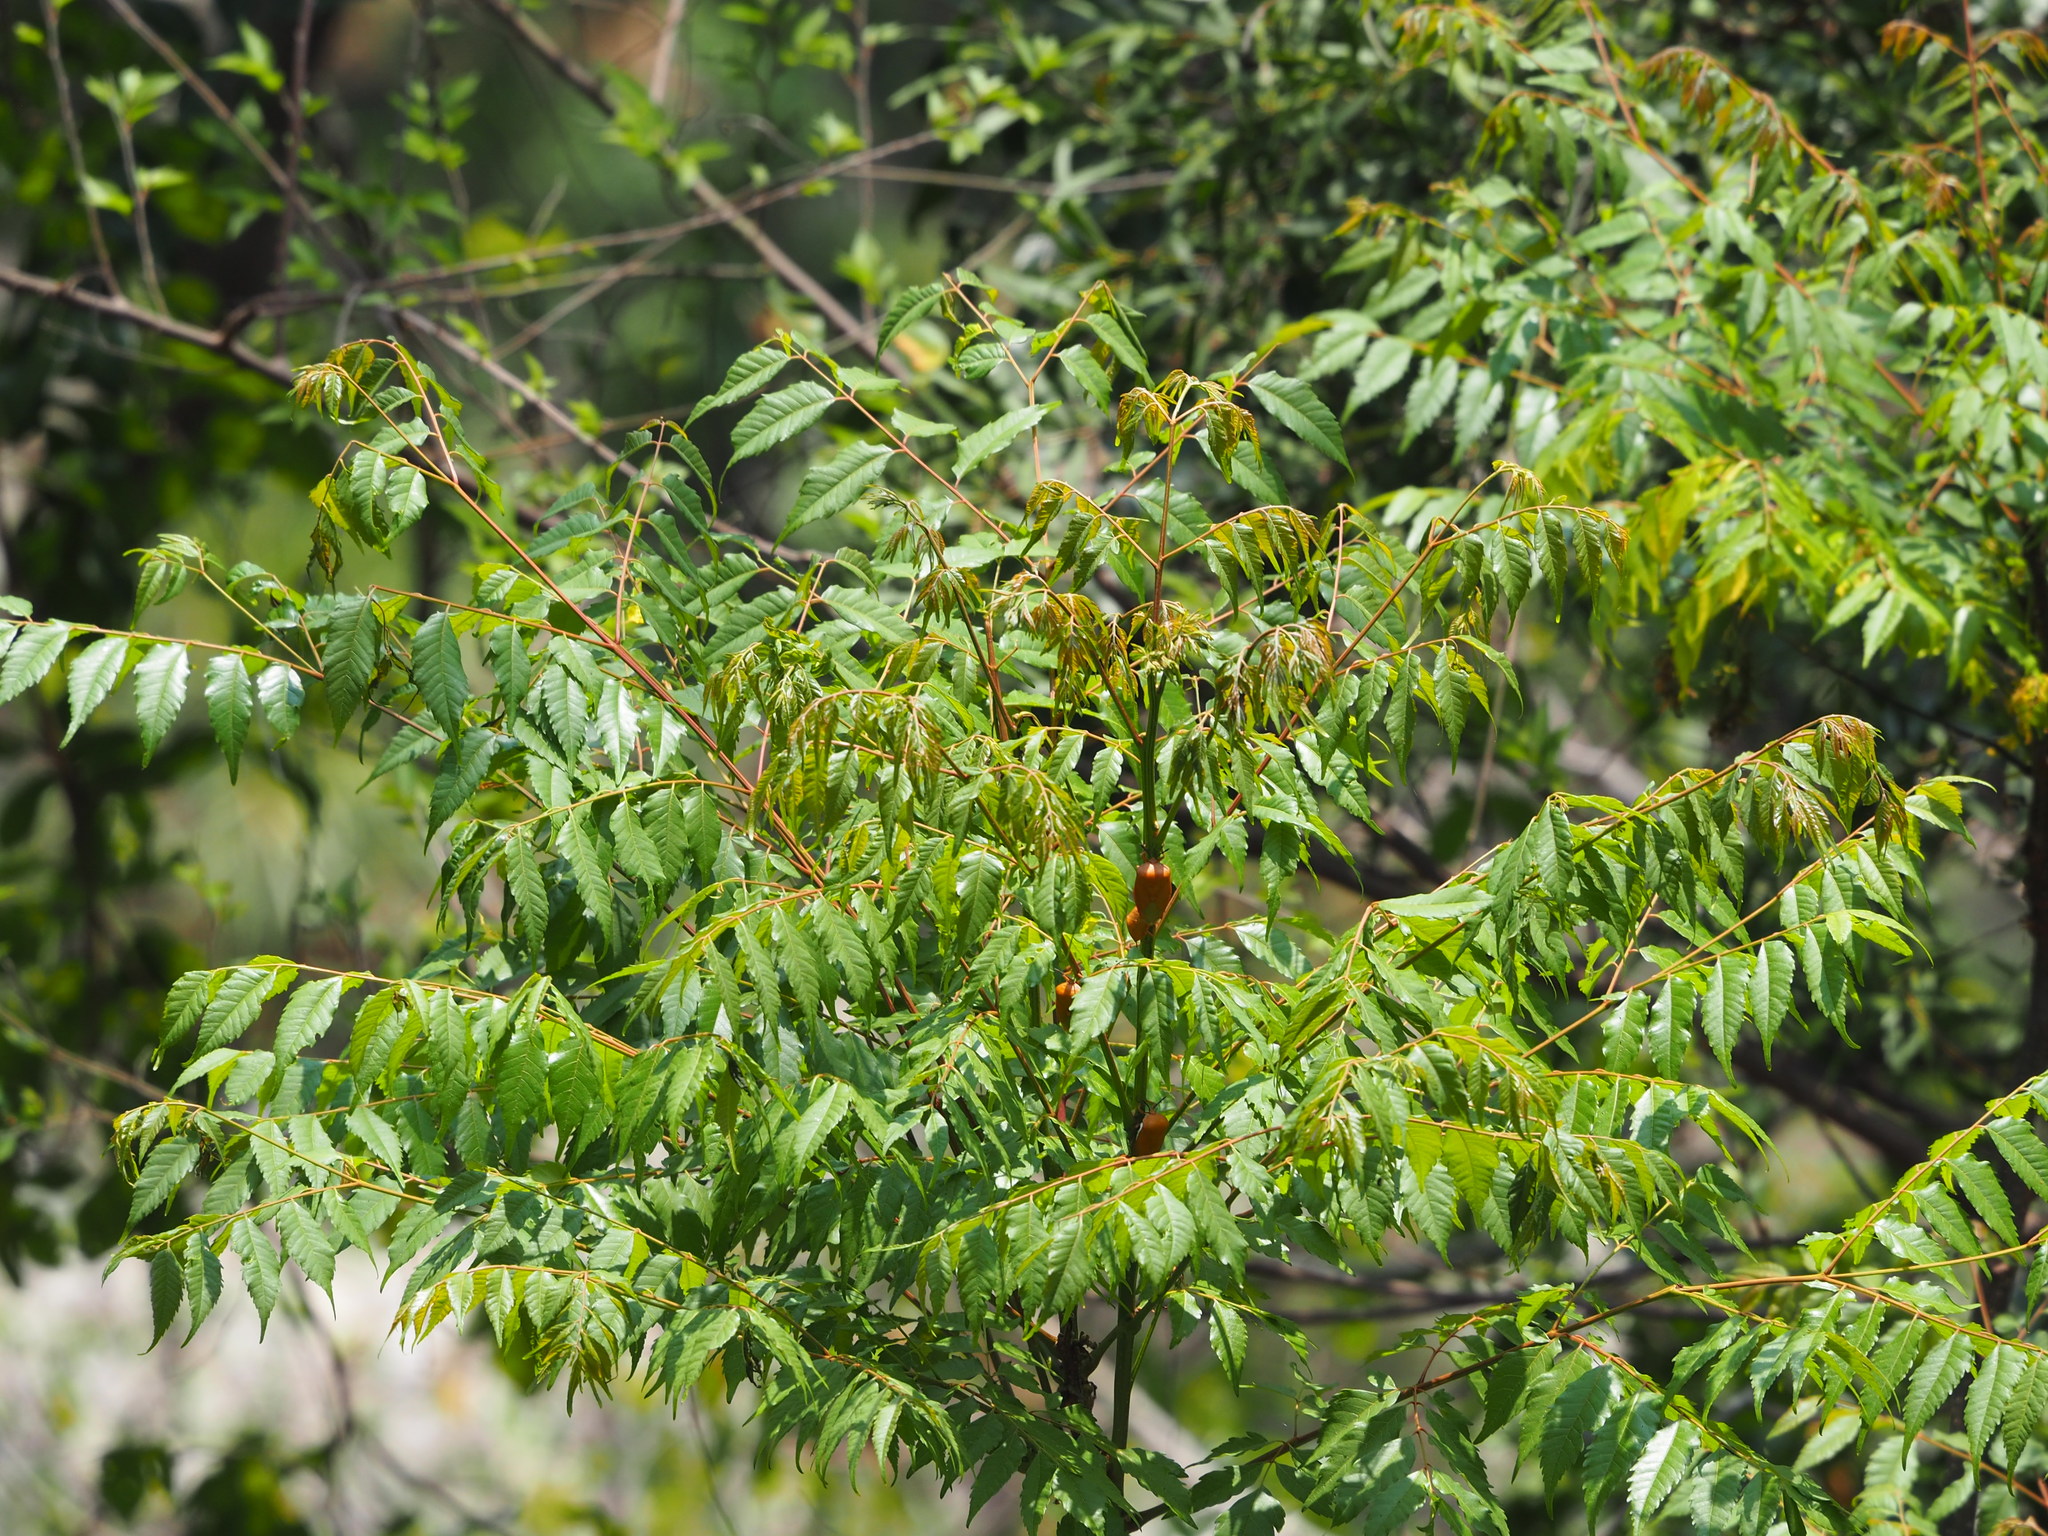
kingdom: Plantae
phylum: Tracheophyta
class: Magnoliopsida
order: Sapindales
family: Sapindaceae
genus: Koelreuteria
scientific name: Koelreuteria elegans
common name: Chinese flame tree
